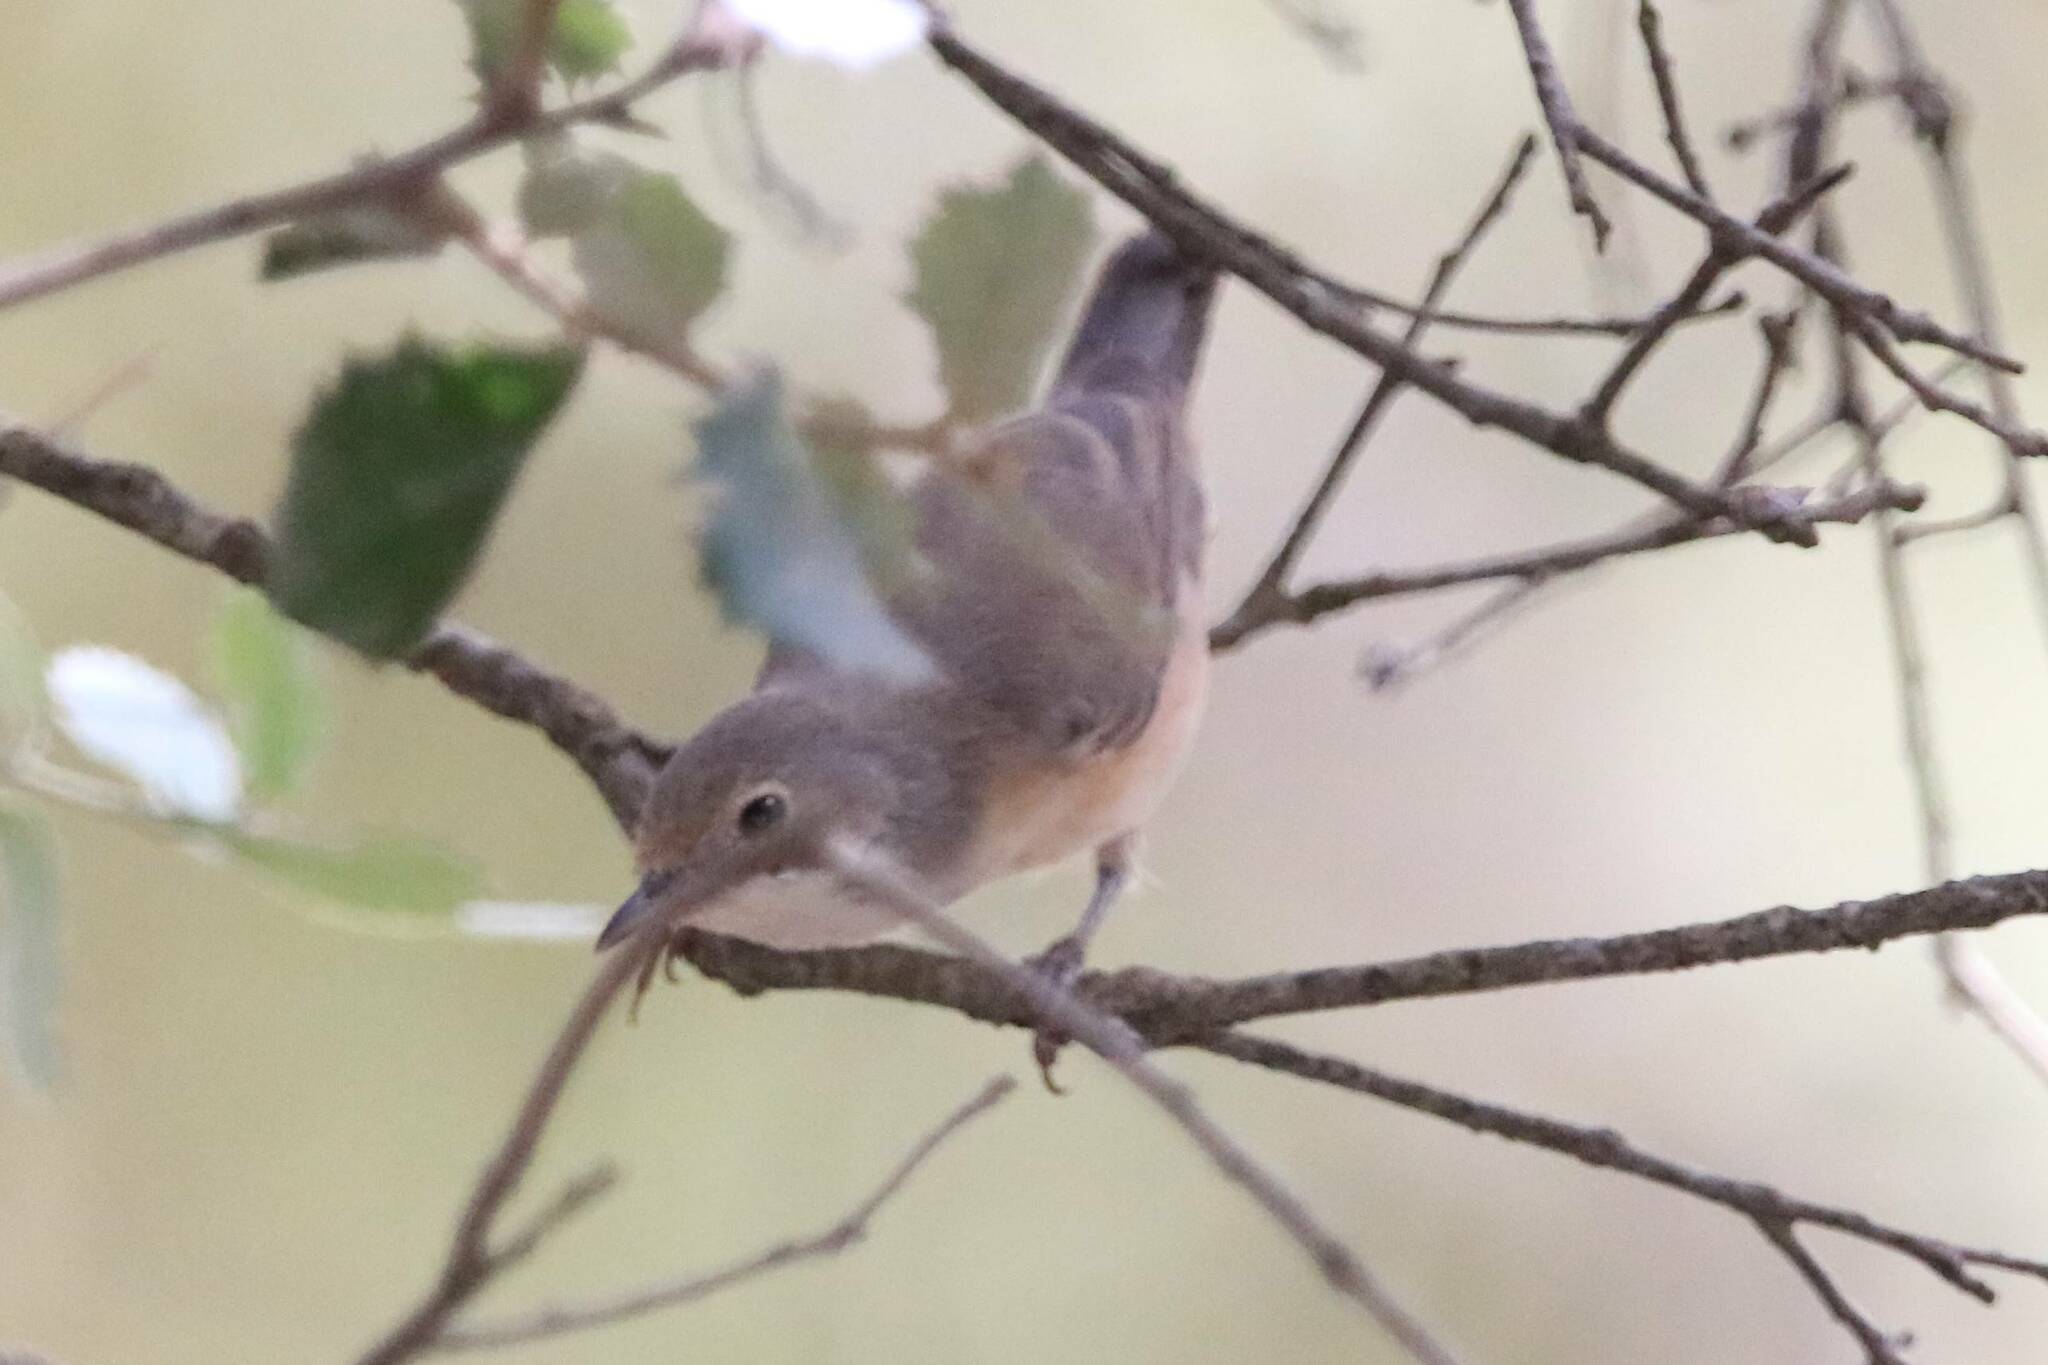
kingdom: Animalia
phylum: Chordata
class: Aves
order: Passeriformes
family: Sylviidae
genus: Curruca
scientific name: Curruca iberiae
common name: Western subalpine warbler
